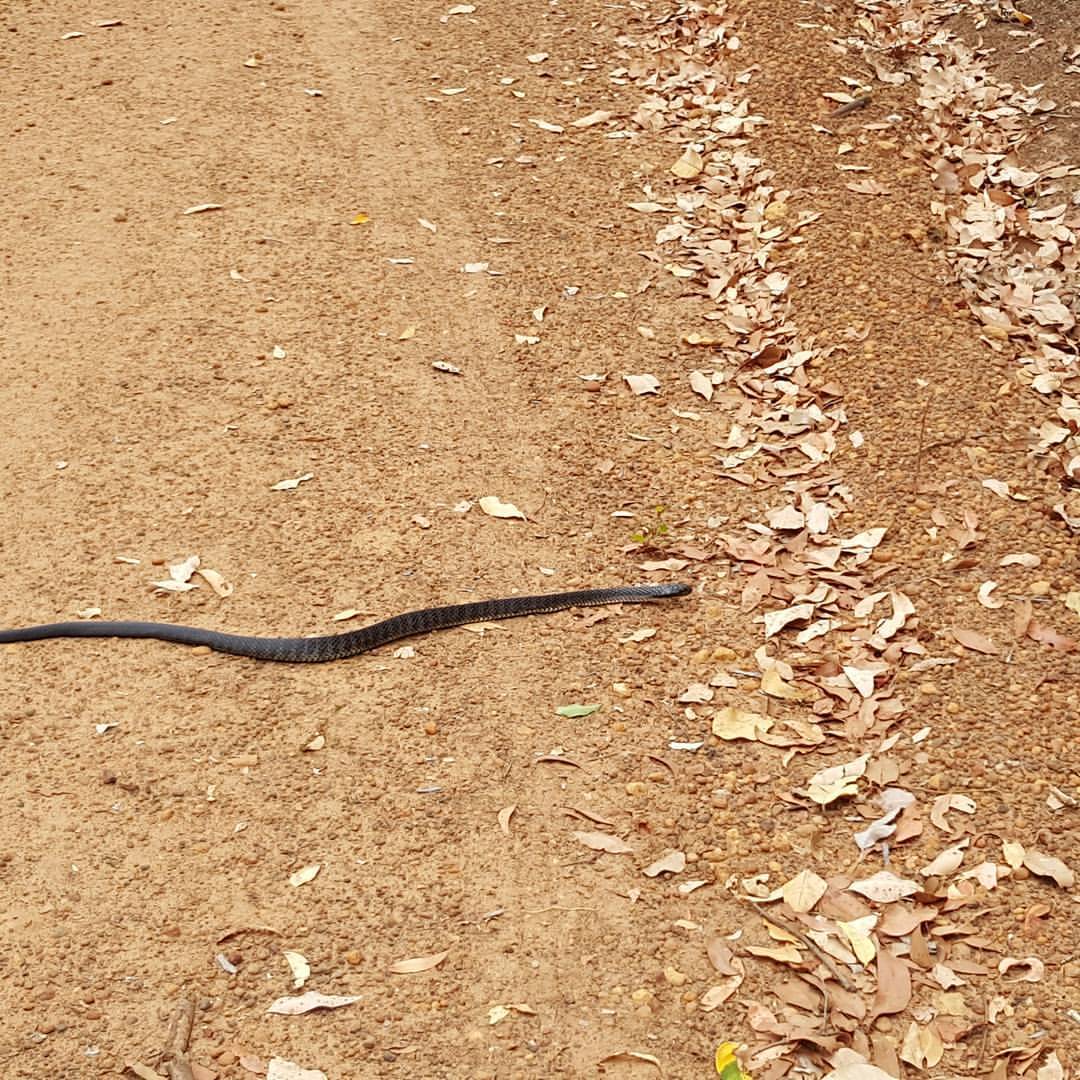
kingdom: Animalia
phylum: Chordata
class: Squamata
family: Elapidae
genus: Notechis
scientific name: Notechis scutatus
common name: Mainland tiger snake
